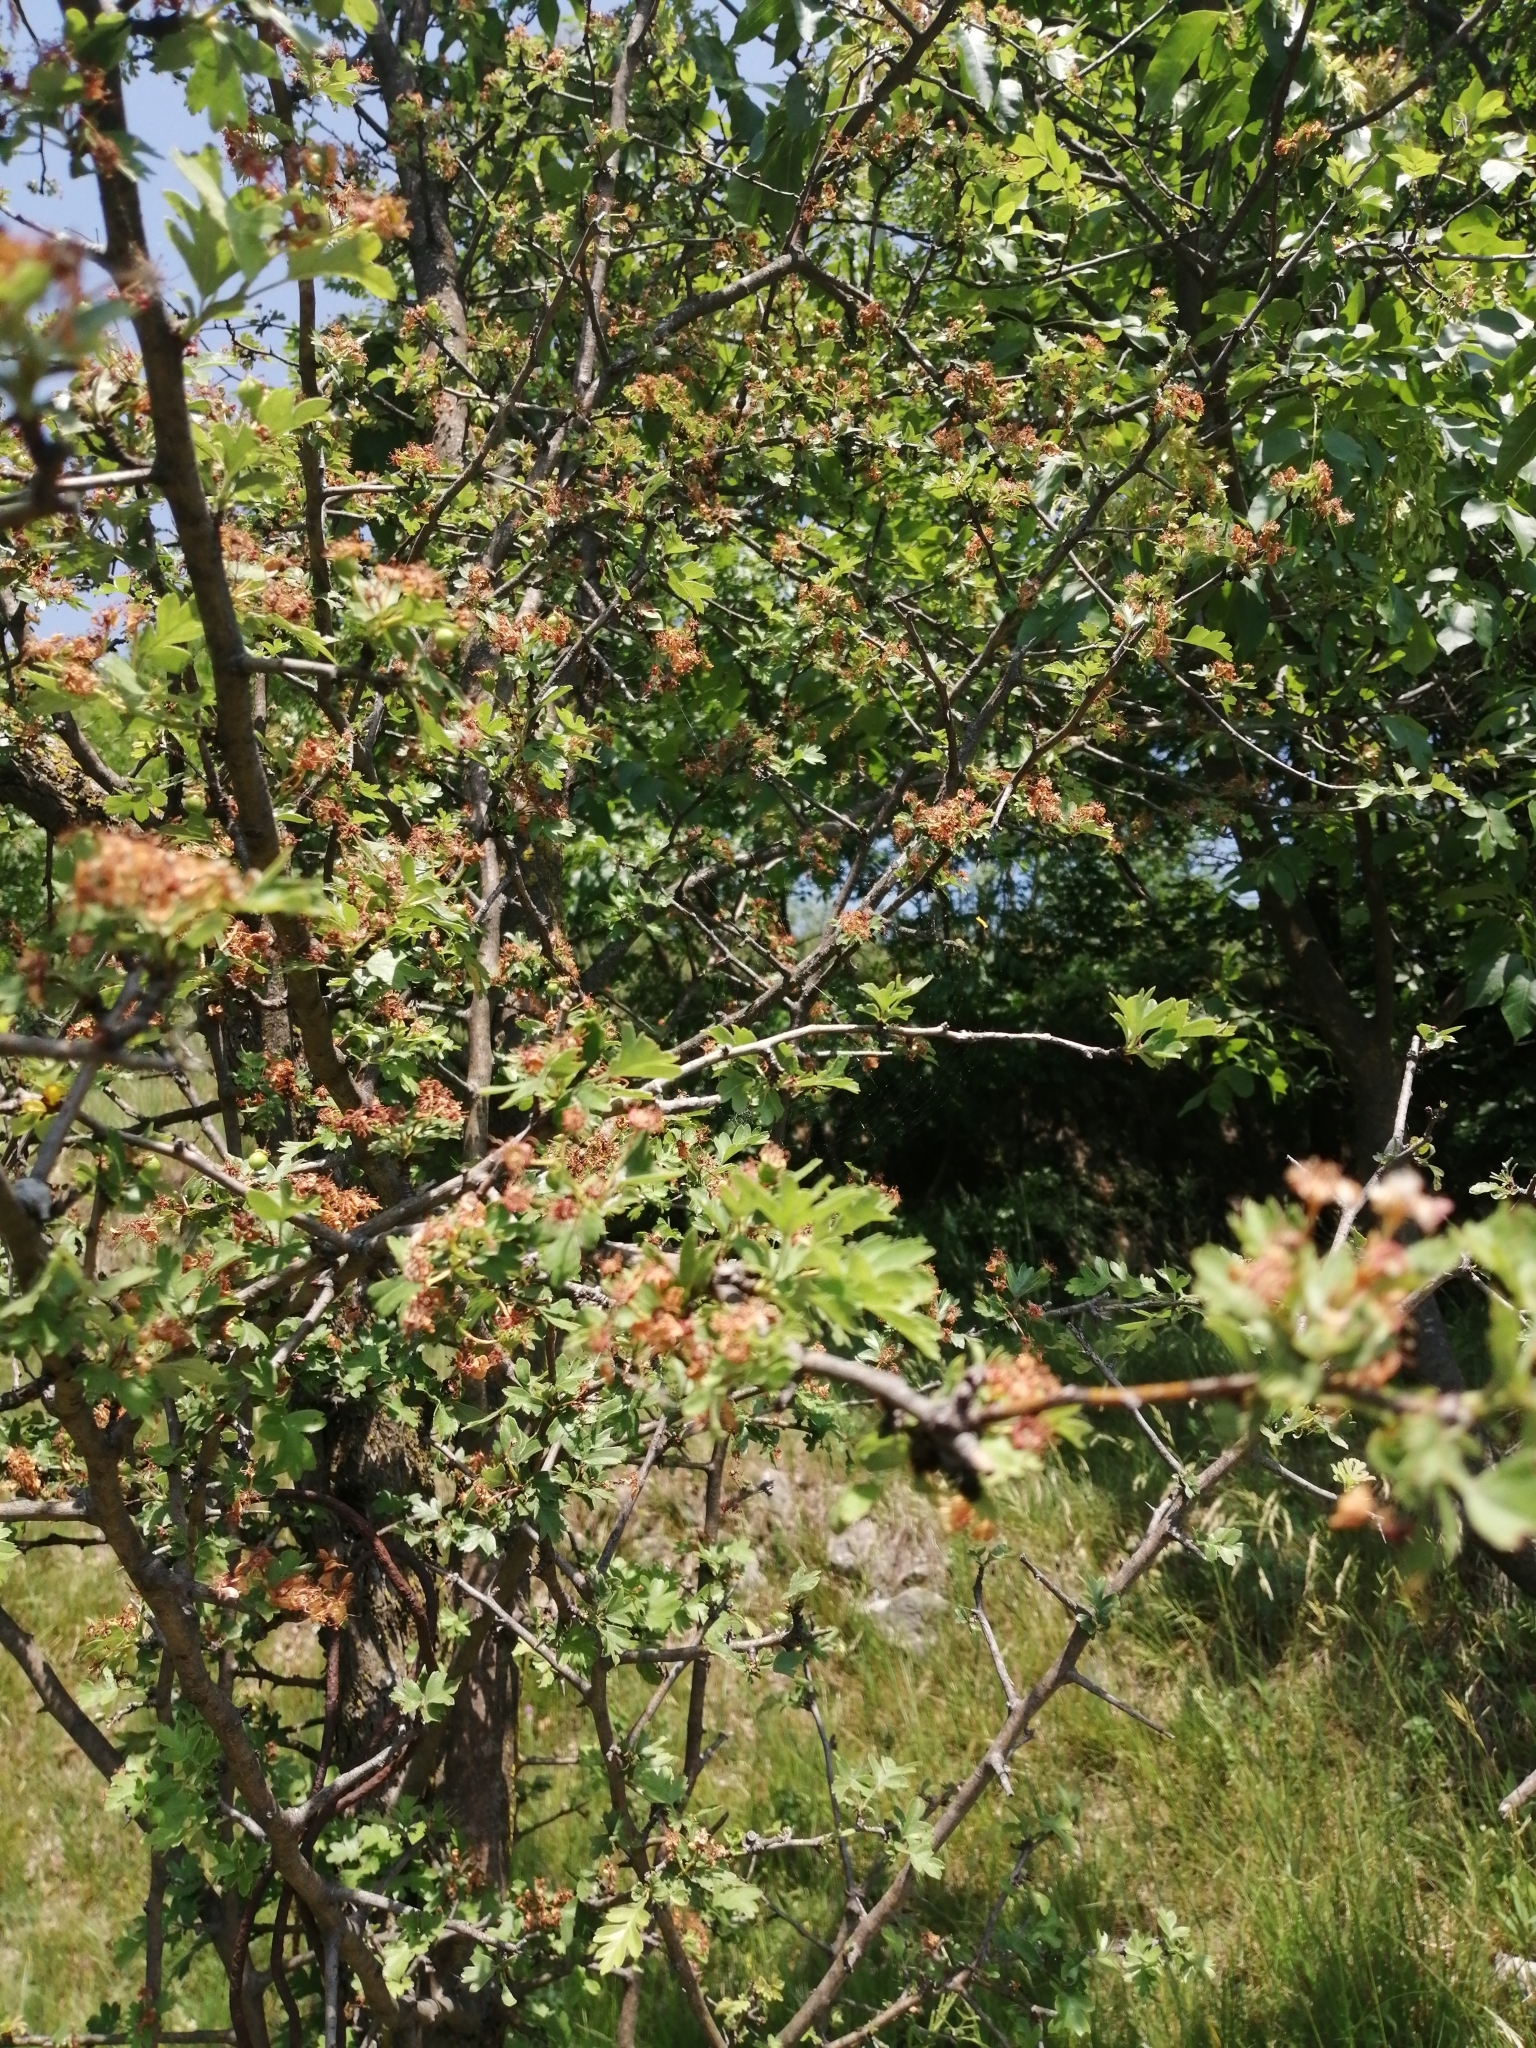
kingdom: Plantae
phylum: Tracheophyta
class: Magnoliopsida
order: Rosales
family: Rosaceae
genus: Crataegus
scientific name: Crataegus monogyna
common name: Hawthorn
